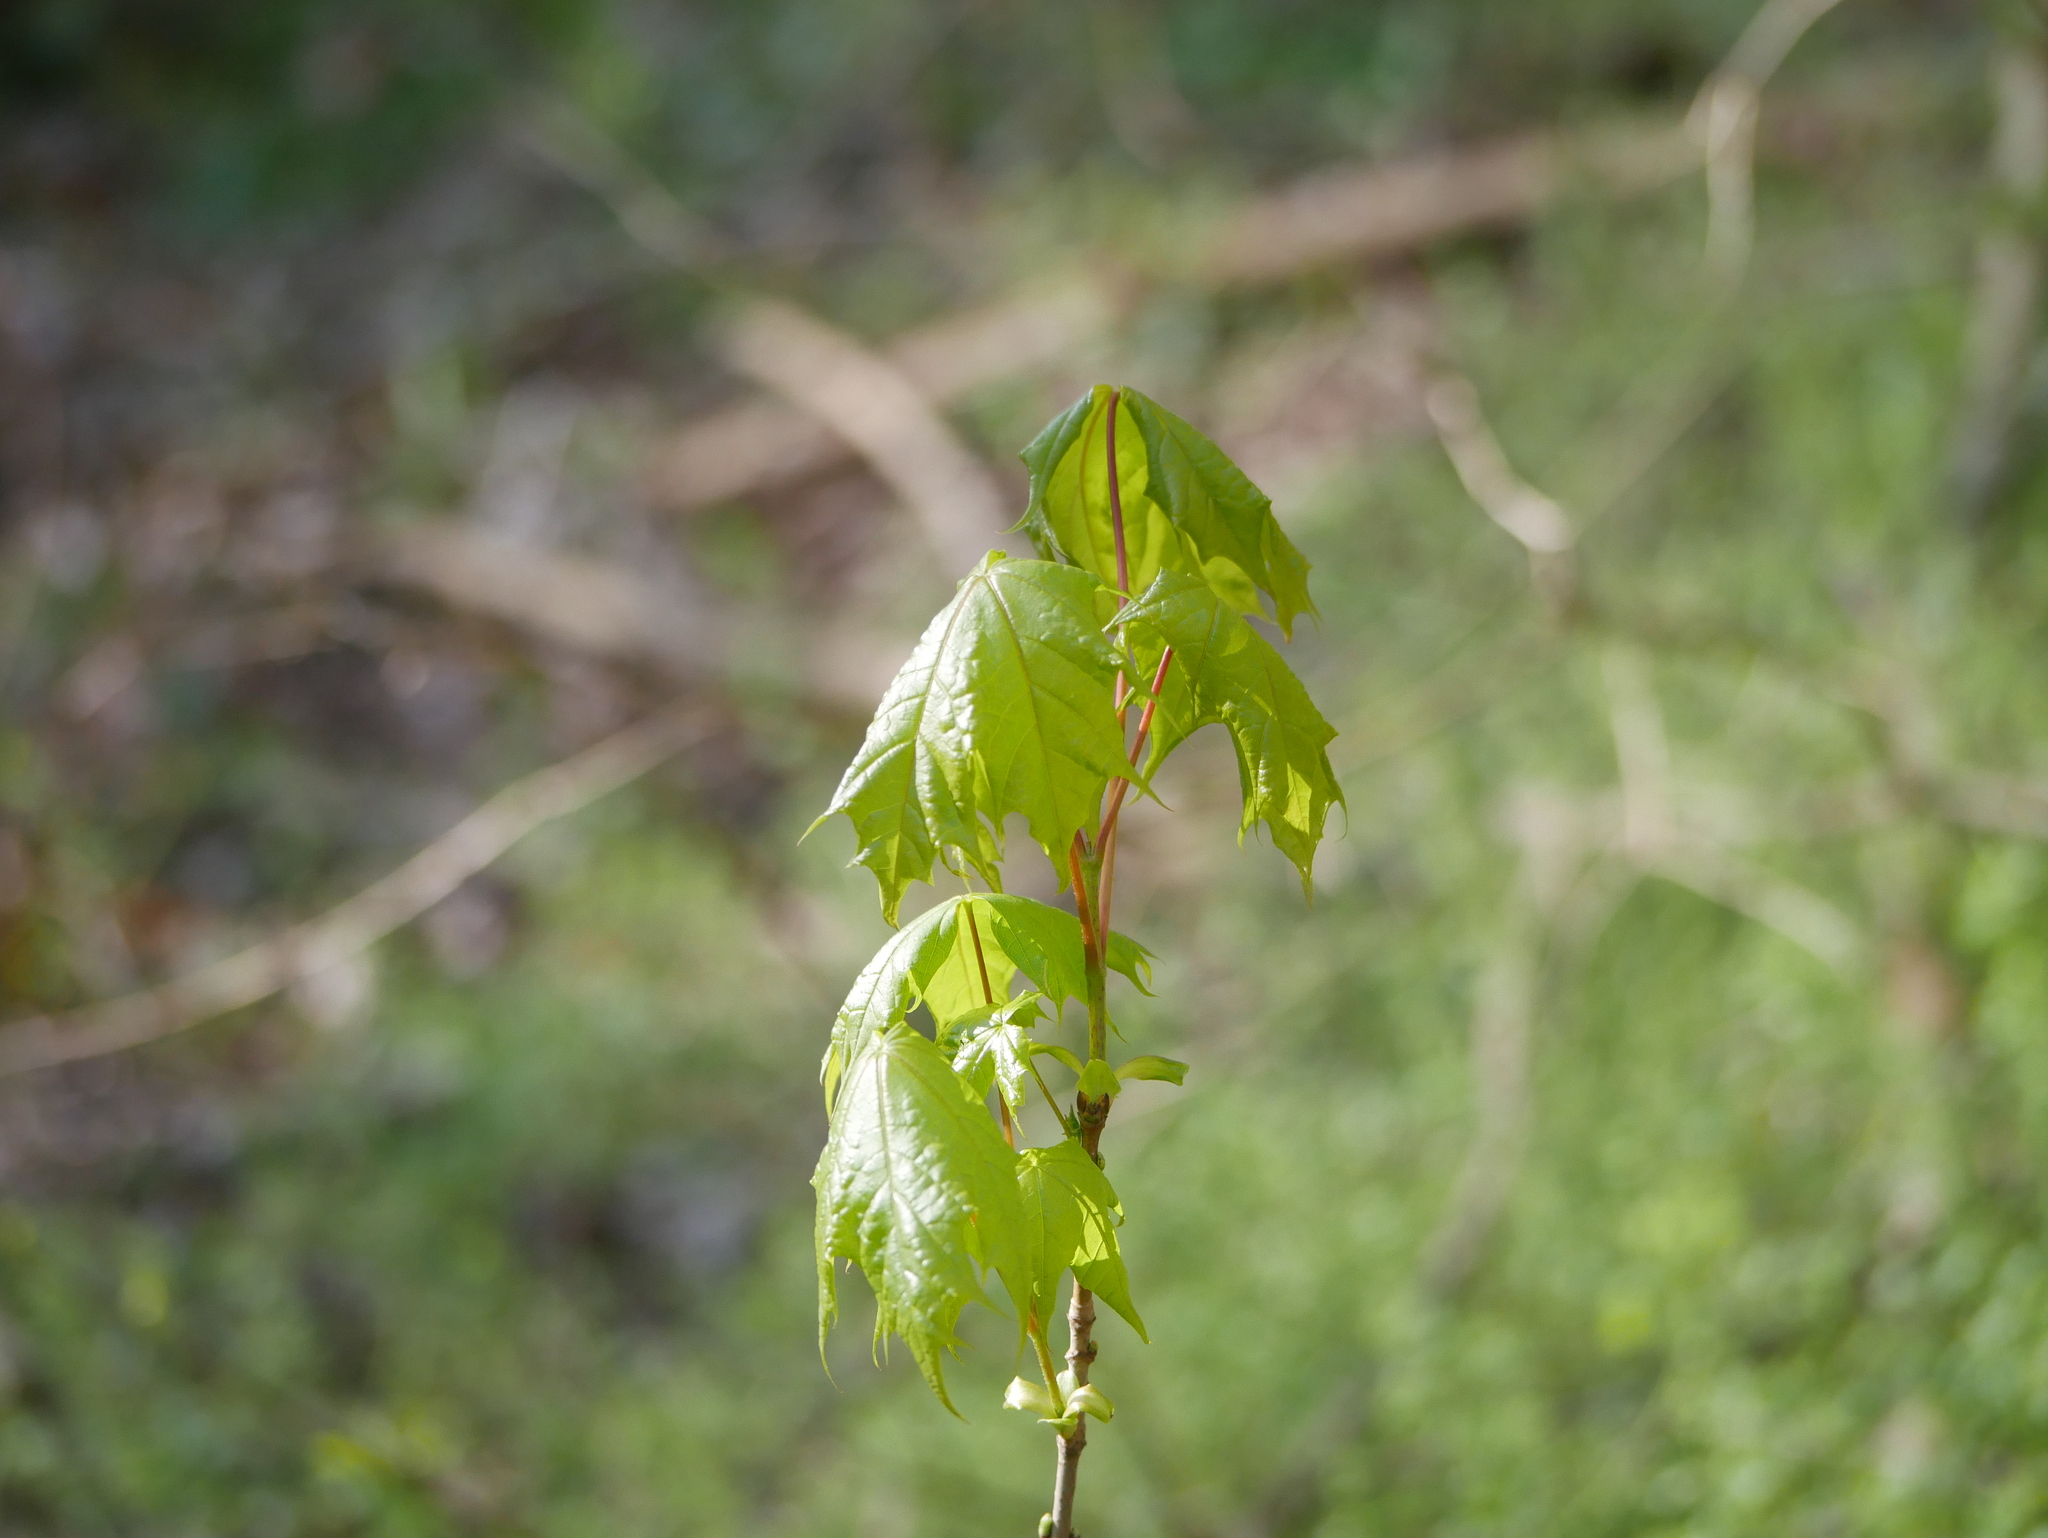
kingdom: Plantae
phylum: Tracheophyta
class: Magnoliopsida
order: Sapindales
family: Sapindaceae
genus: Acer
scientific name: Acer platanoides
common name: Norway maple
